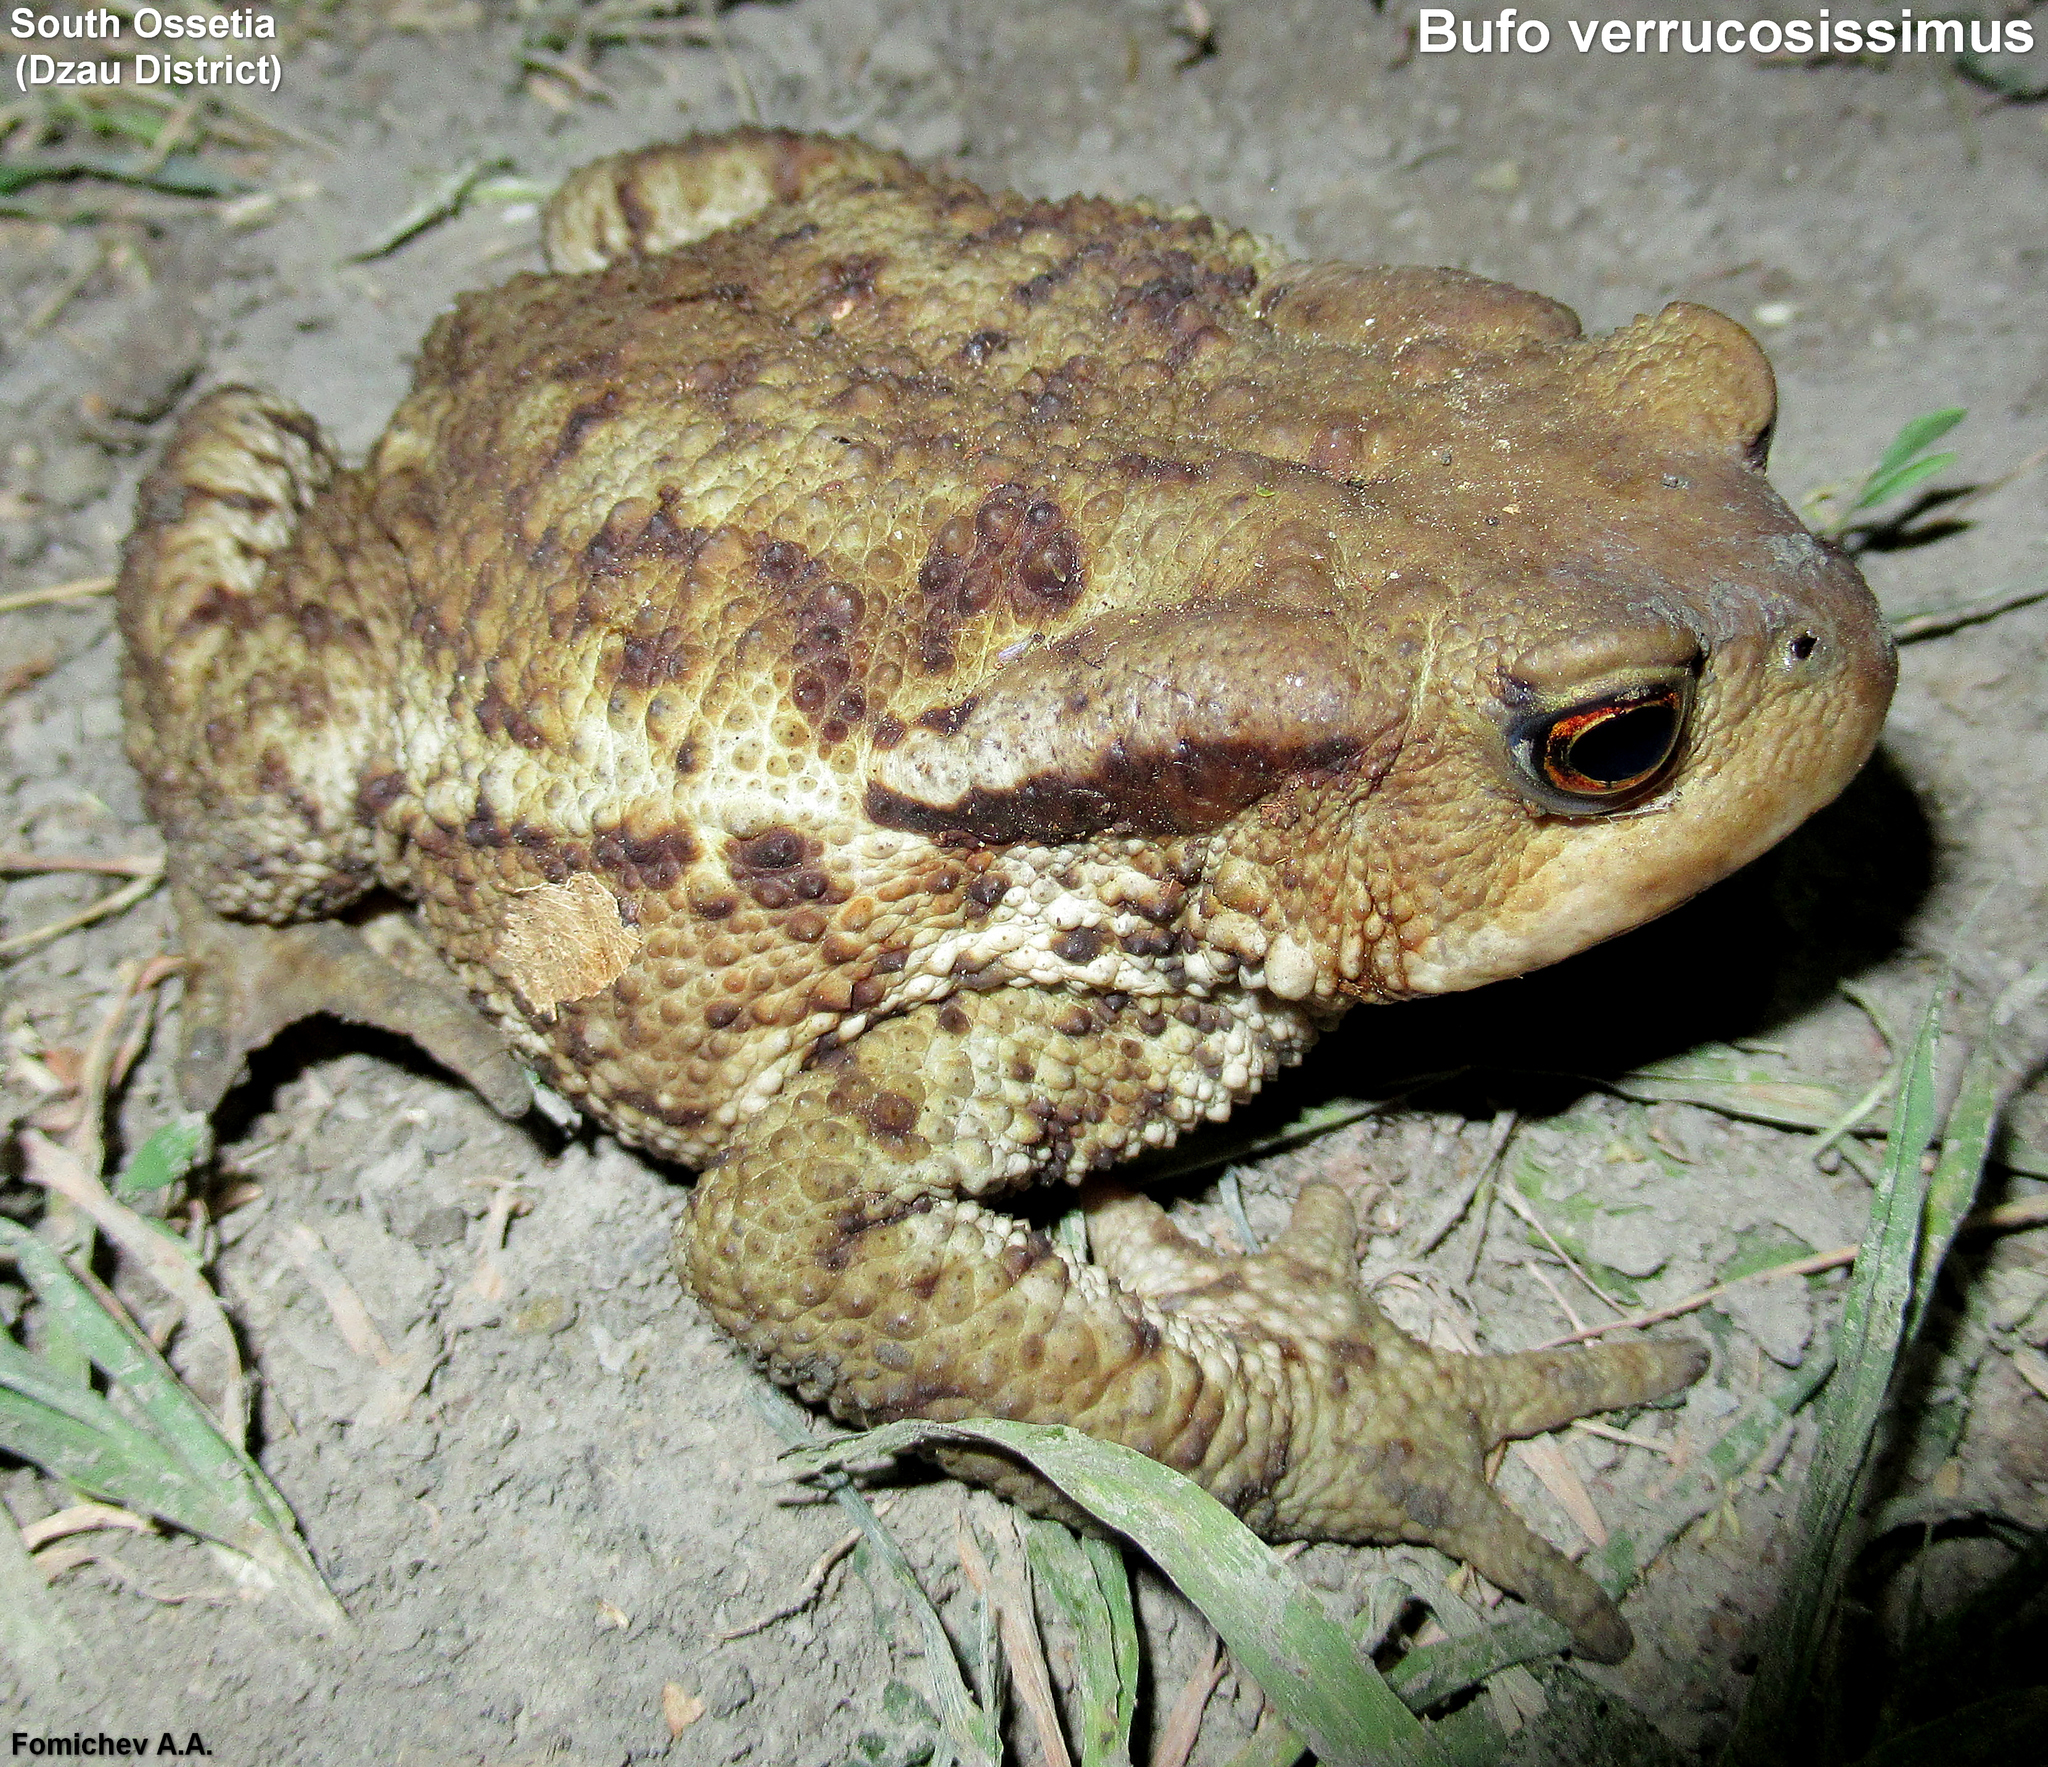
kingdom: Animalia
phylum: Chordata
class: Amphibia
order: Anura
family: Bufonidae
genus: Bufo
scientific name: Bufo verrucosissimus
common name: Caucasian toad
